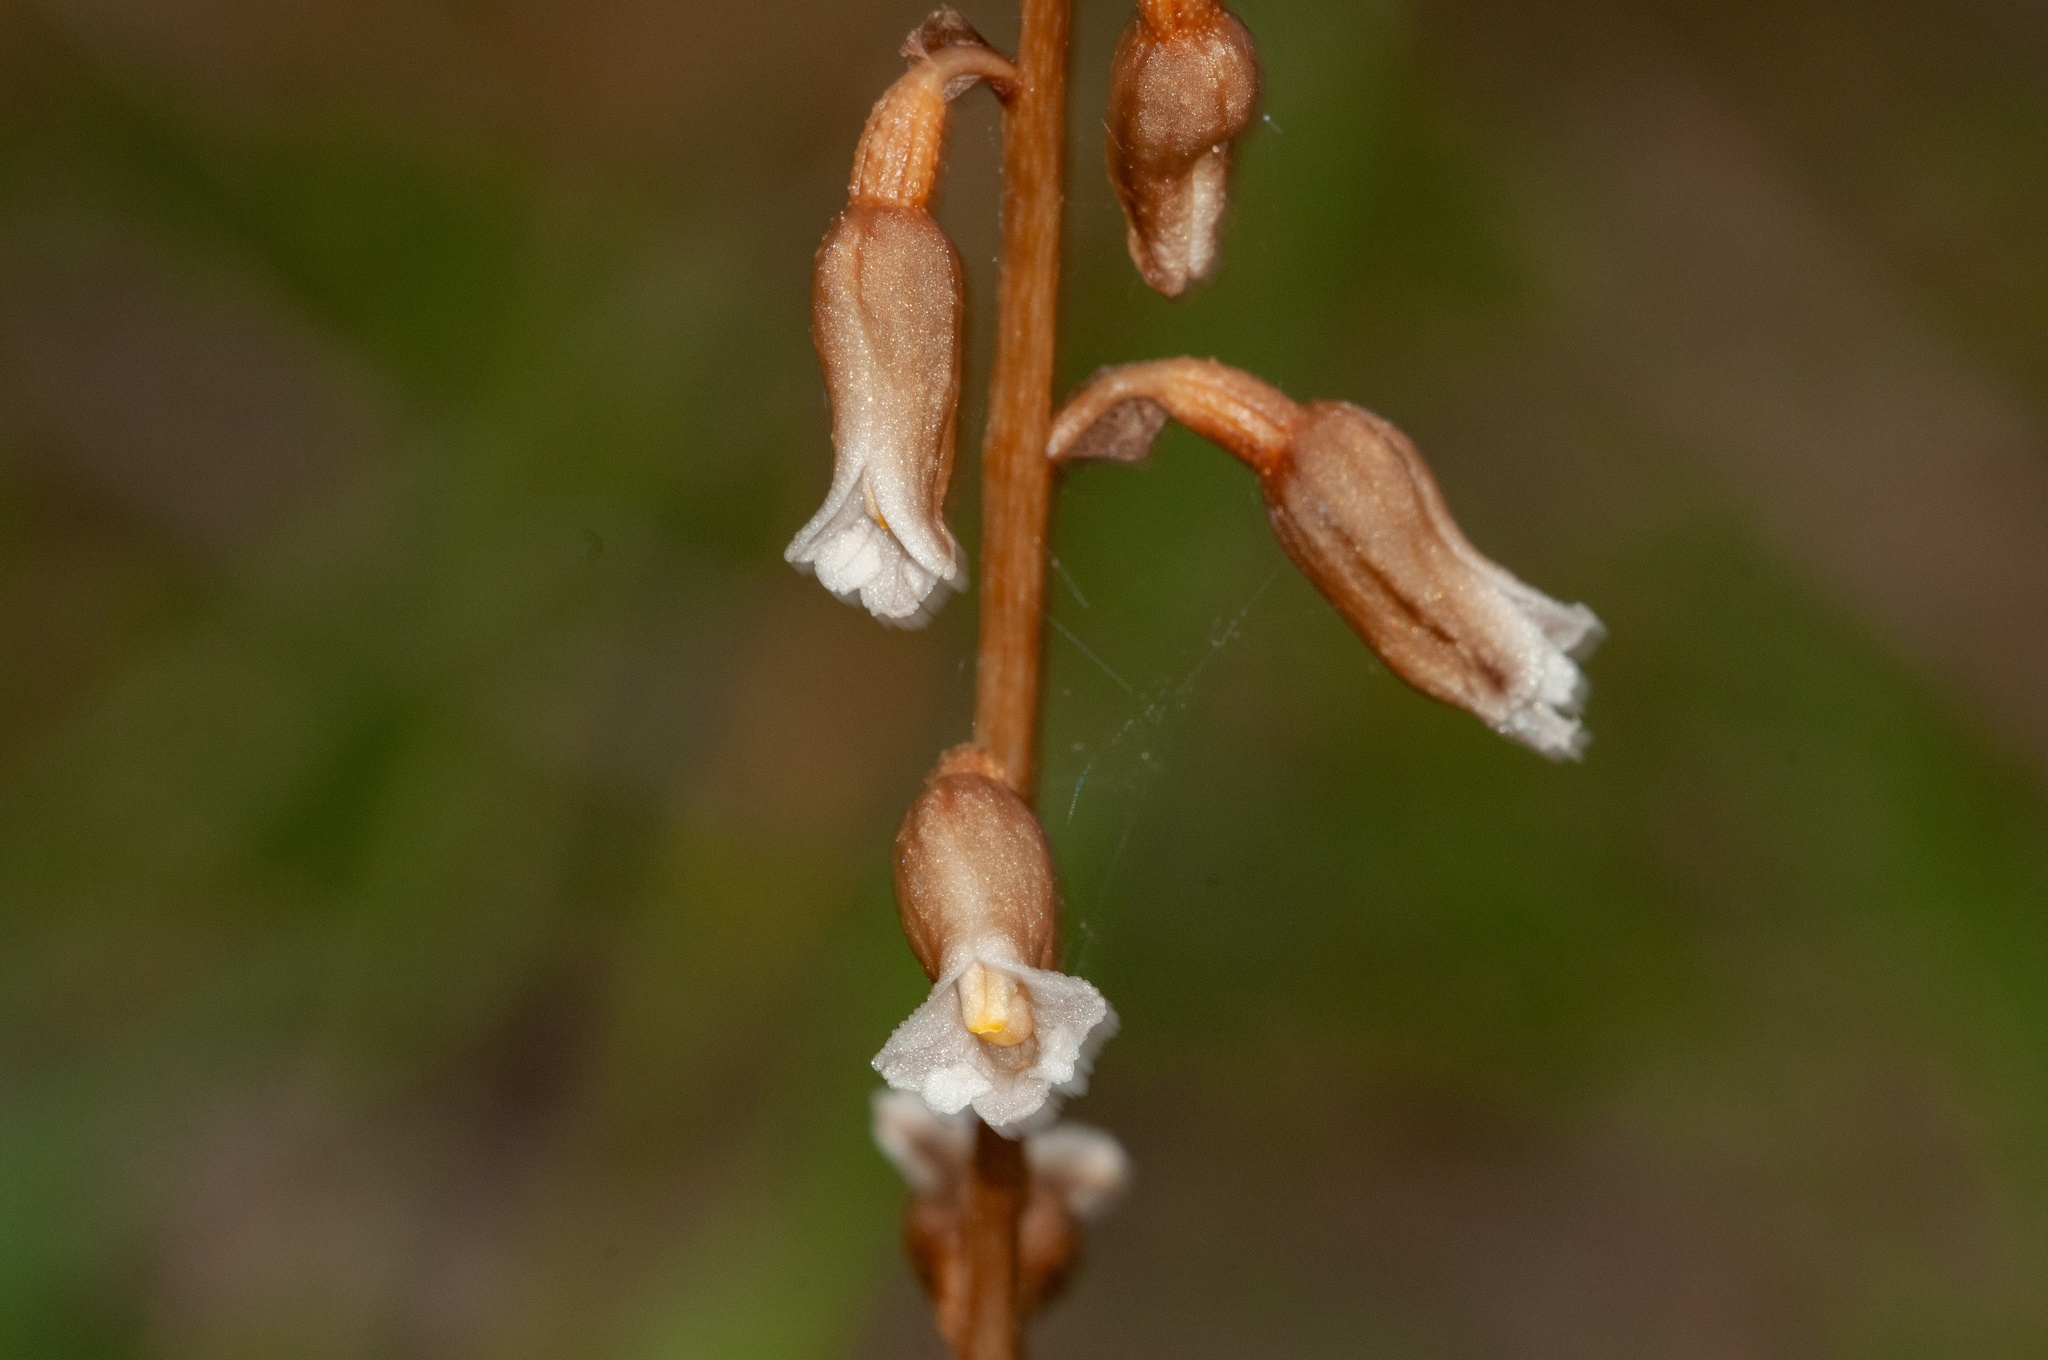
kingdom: Plantae
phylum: Tracheophyta
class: Liliopsida
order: Asparagales
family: Orchidaceae
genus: Gastrodia
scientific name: Gastrodia procera
